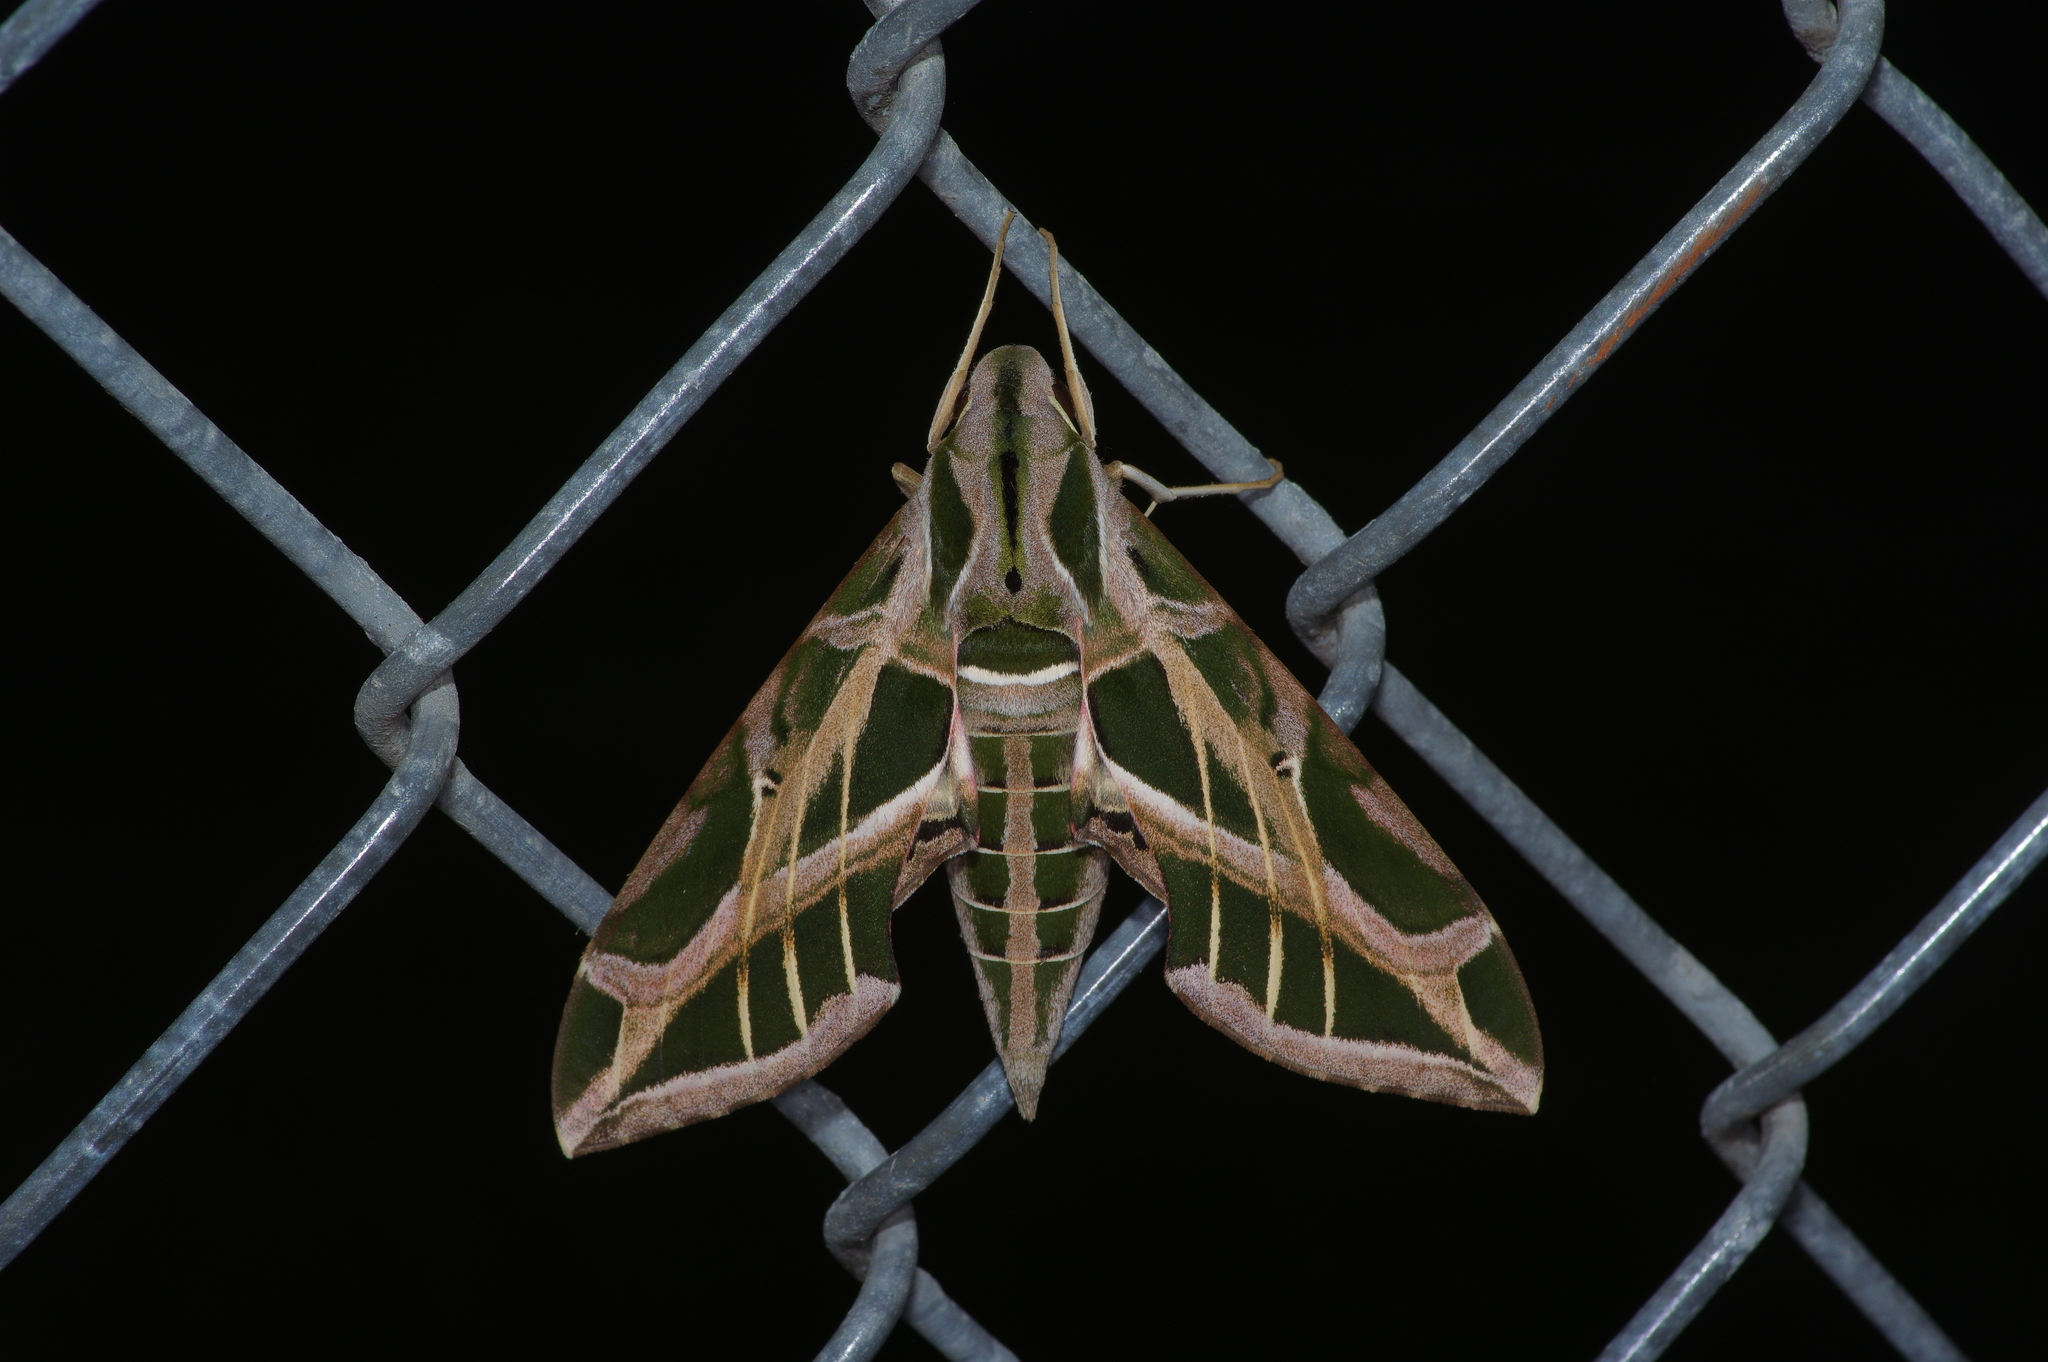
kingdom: Animalia
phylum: Arthropoda
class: Insecta
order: Lepidoptera
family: Sphingidae
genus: Eumorpha
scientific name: Eumorpha vitis
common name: Vine sphinx
